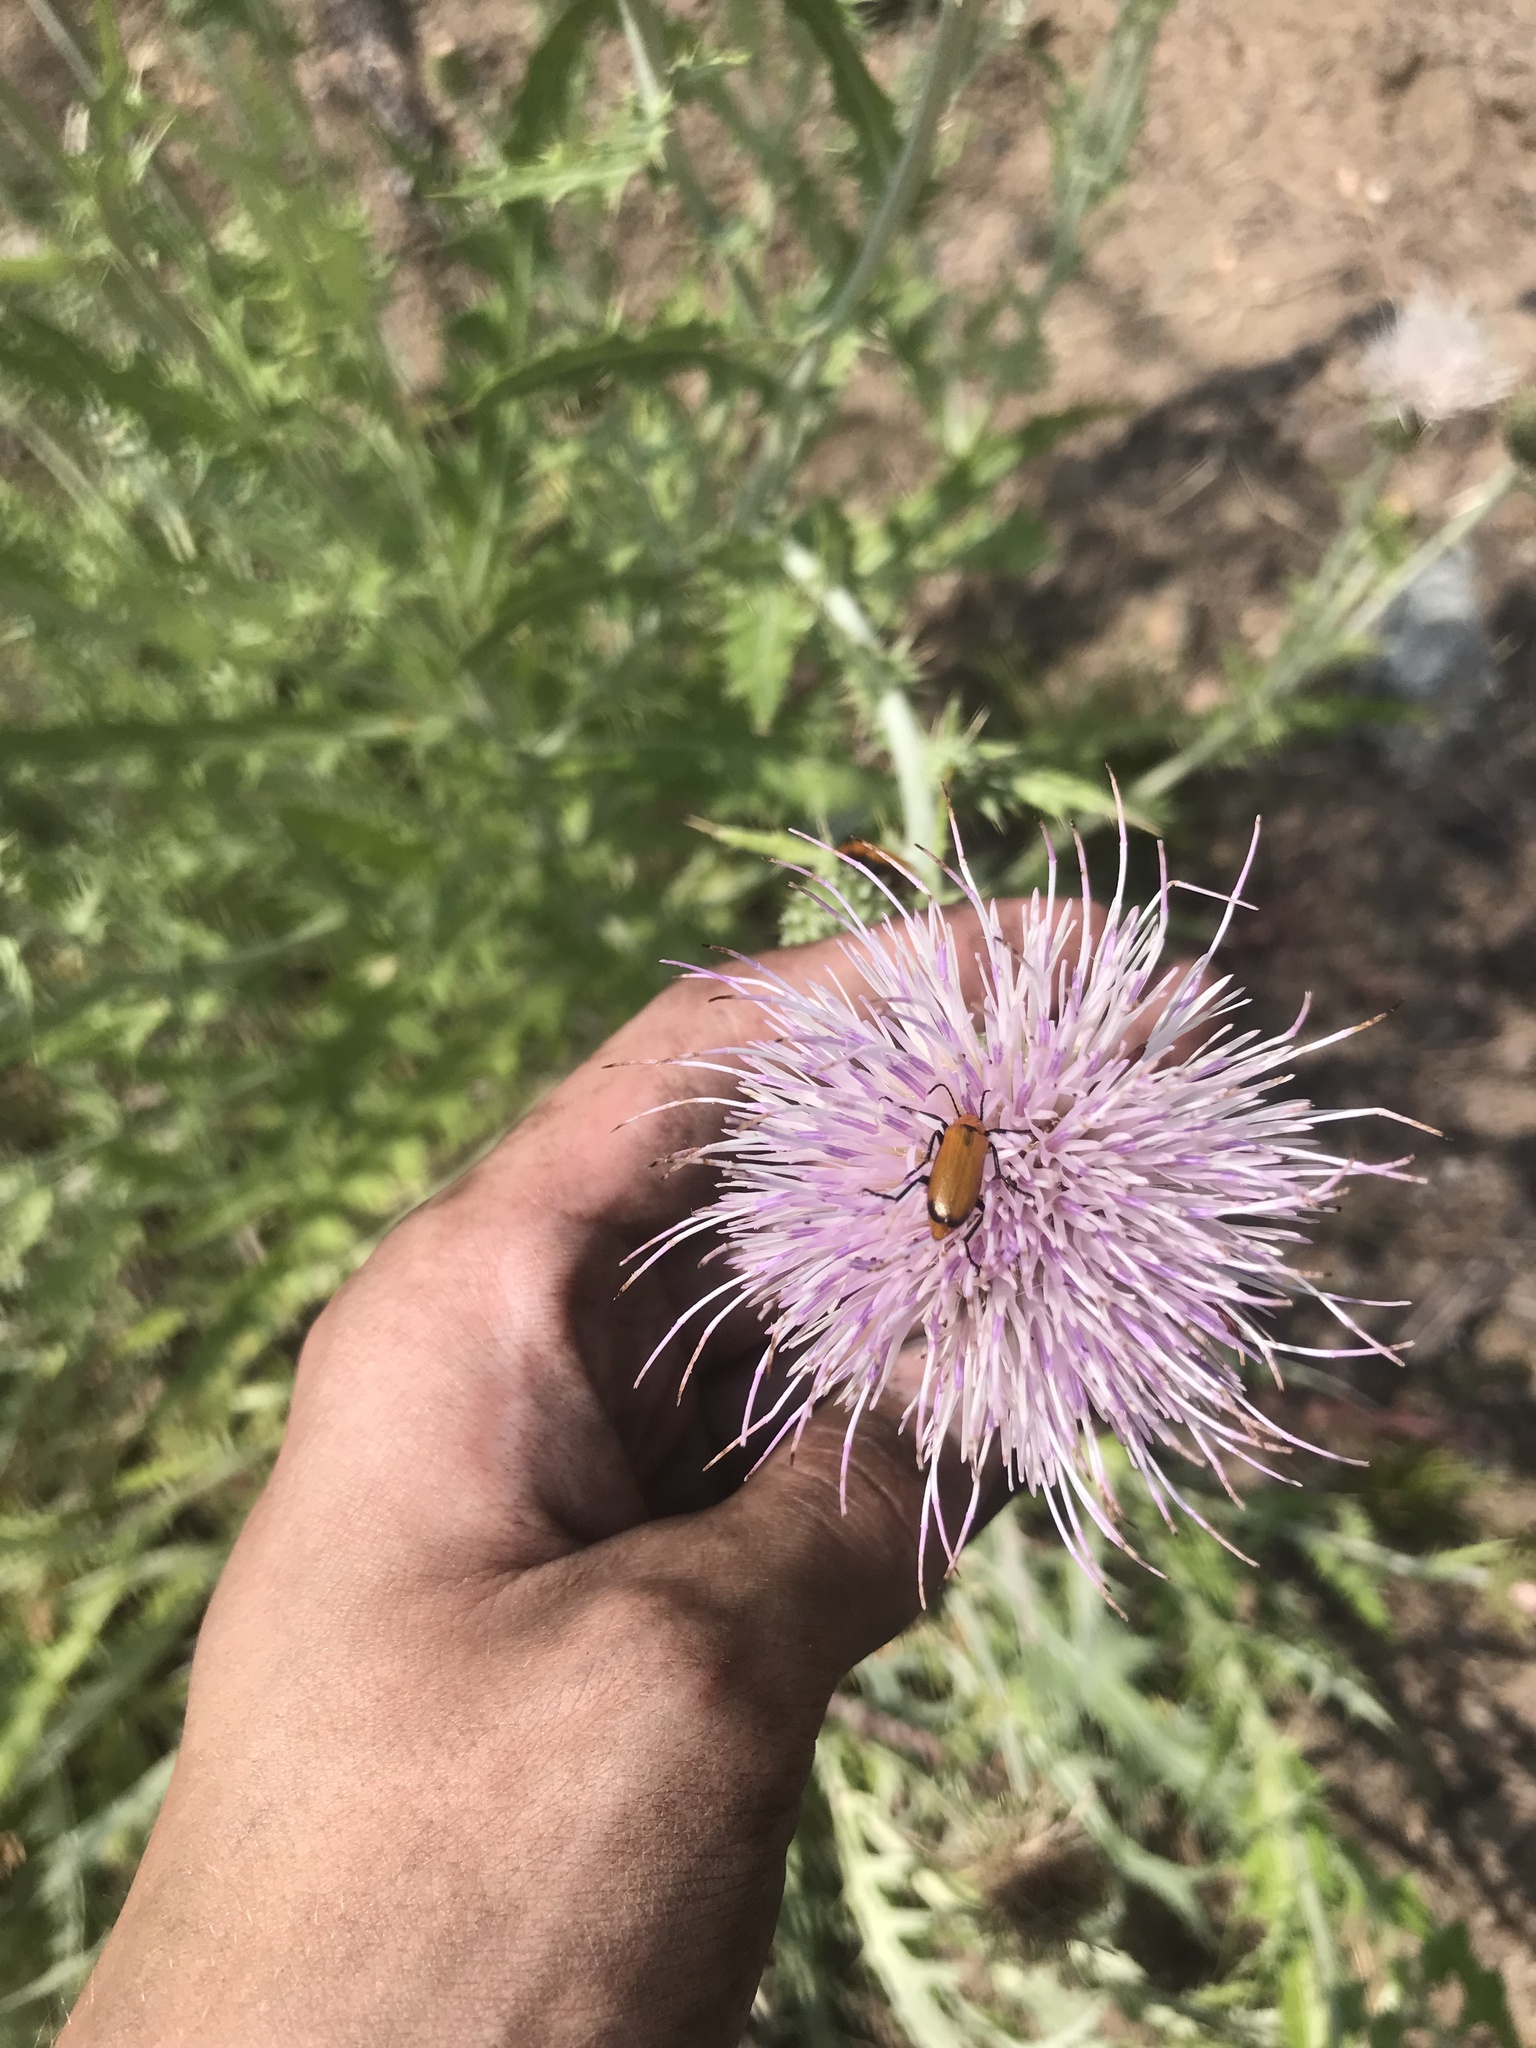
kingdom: Animalia
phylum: Arthropoda
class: Insecta
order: Coleoptera
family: Meloidae
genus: Nemognatha
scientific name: Nemognatha lutea
